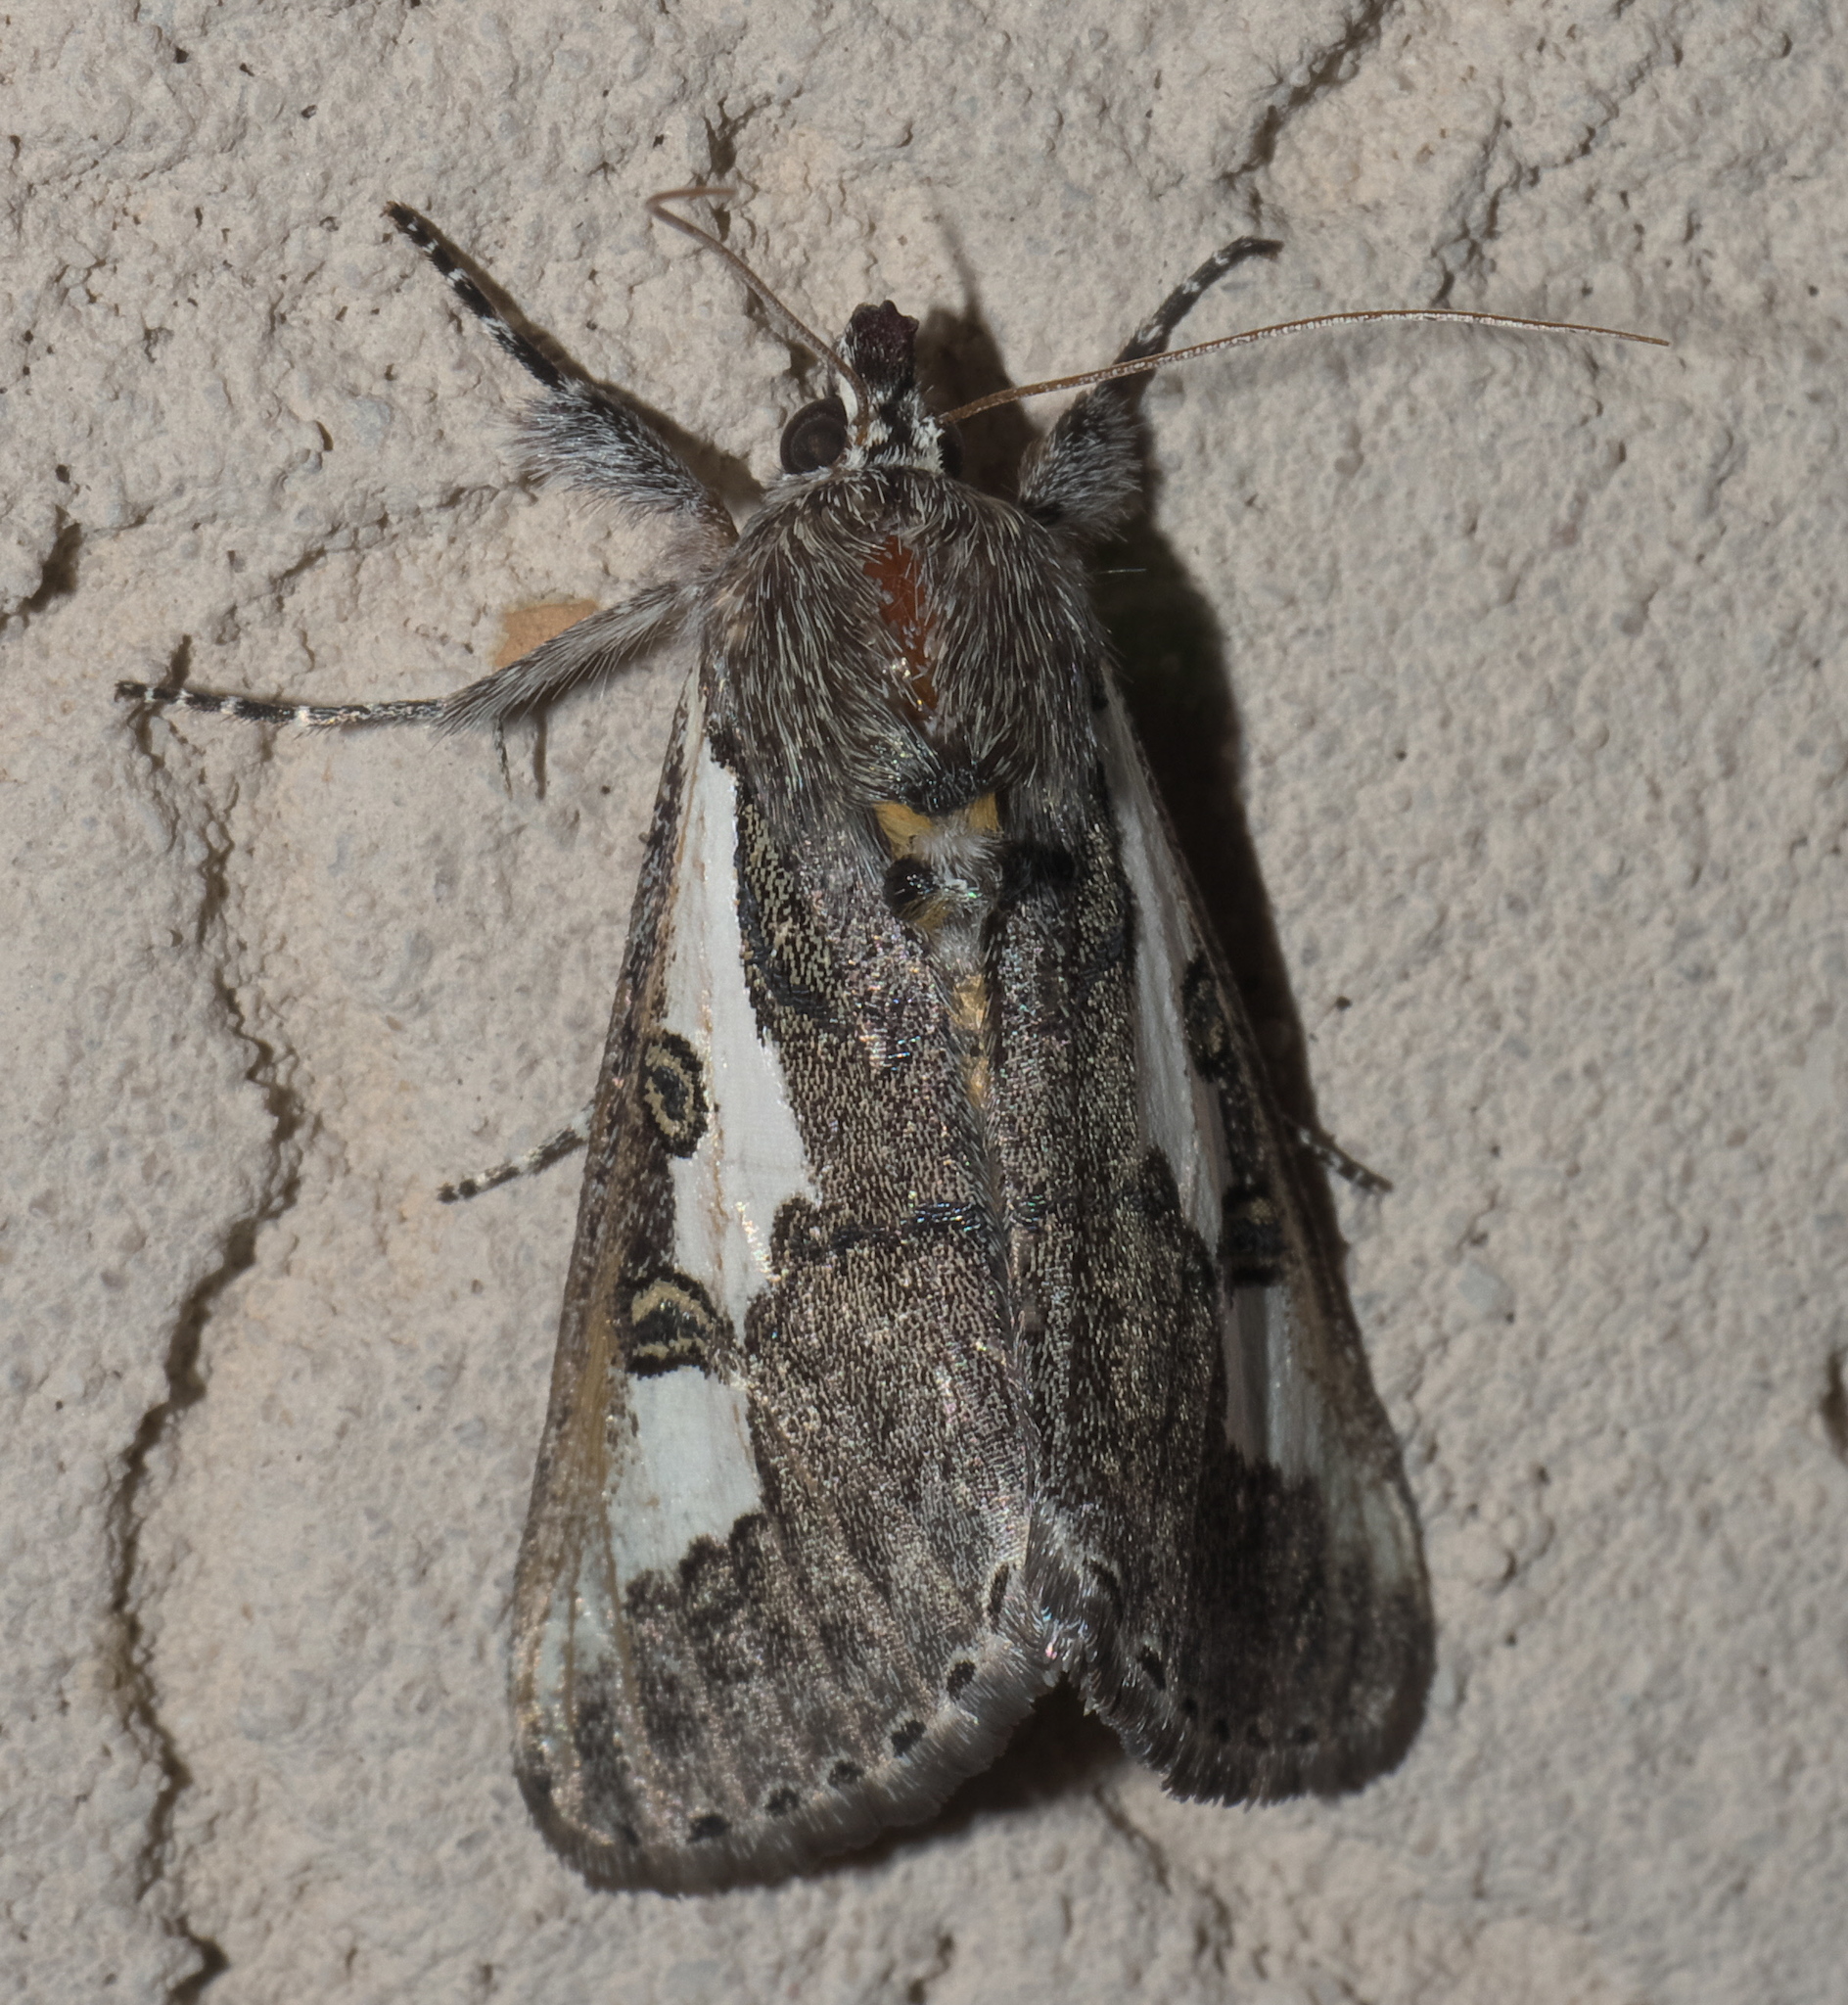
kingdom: Animalia
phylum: Arthropoda
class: Insecta
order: Lepidoptera
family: Noctuidae
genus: Euscirrhopterus
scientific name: Euscirrhopterus gloveri
